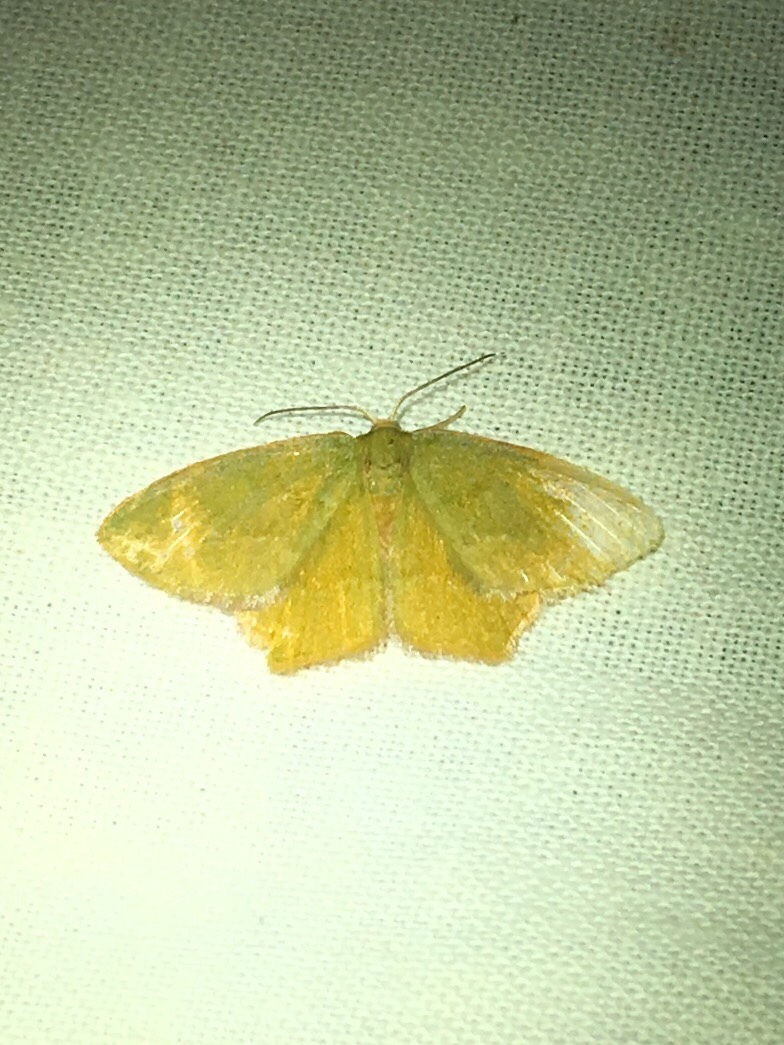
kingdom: Animalia
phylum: Arthropoda
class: Insecta
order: Lepidoptera
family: Geometridae
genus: Thalera
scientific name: Thalera pistasciaria
